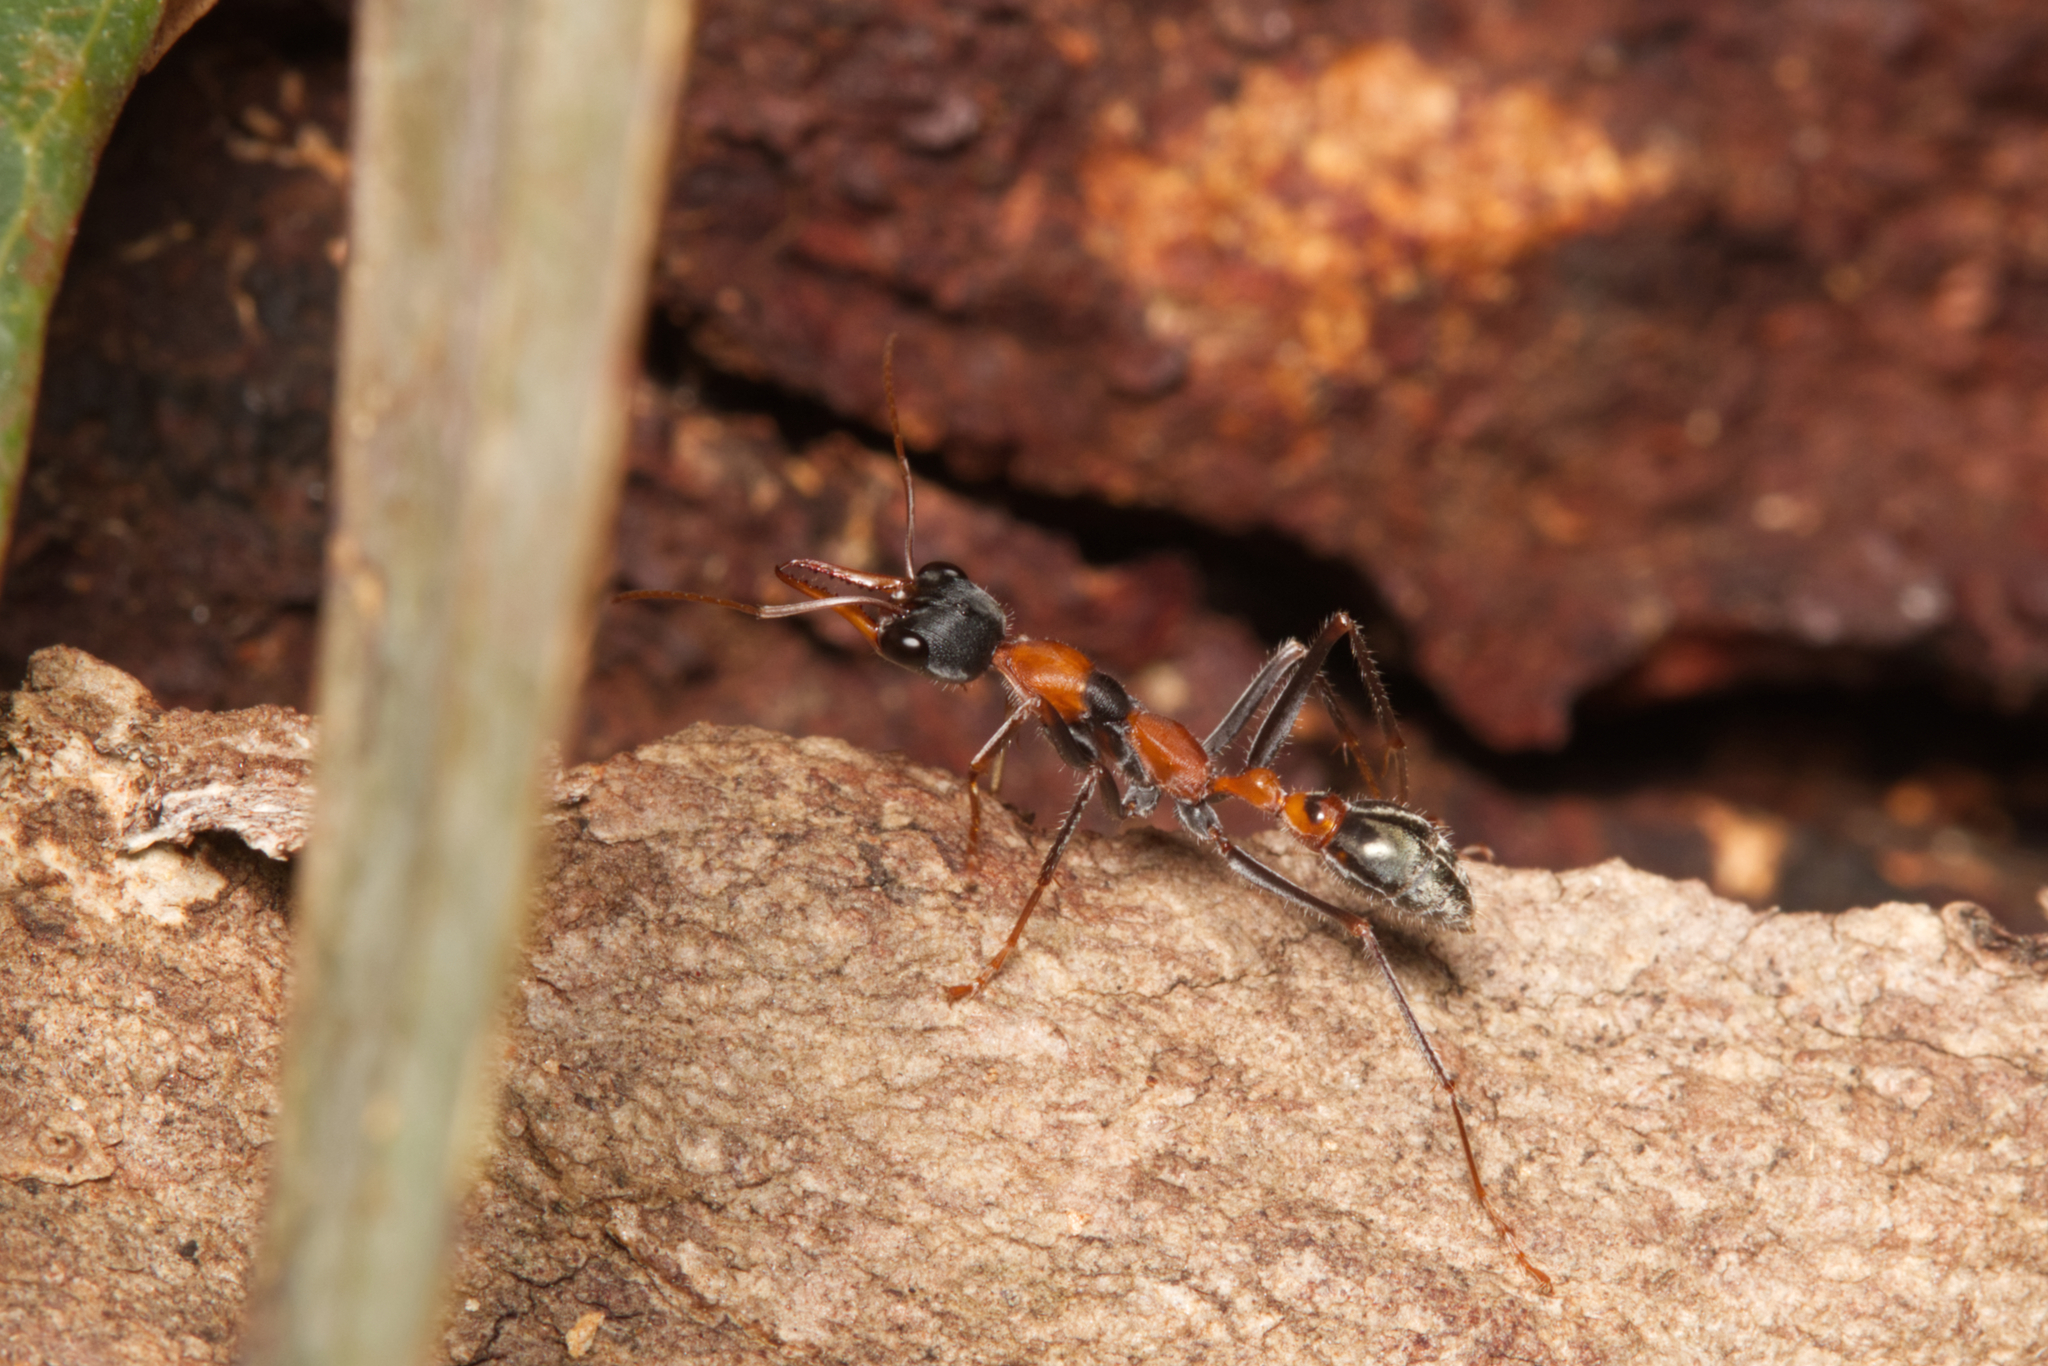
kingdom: Animalia
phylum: Arthropoda
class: Insecta
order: Hymenoptera
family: Formicidae
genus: Myrmecia
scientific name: Myrmecia nigrocincta
